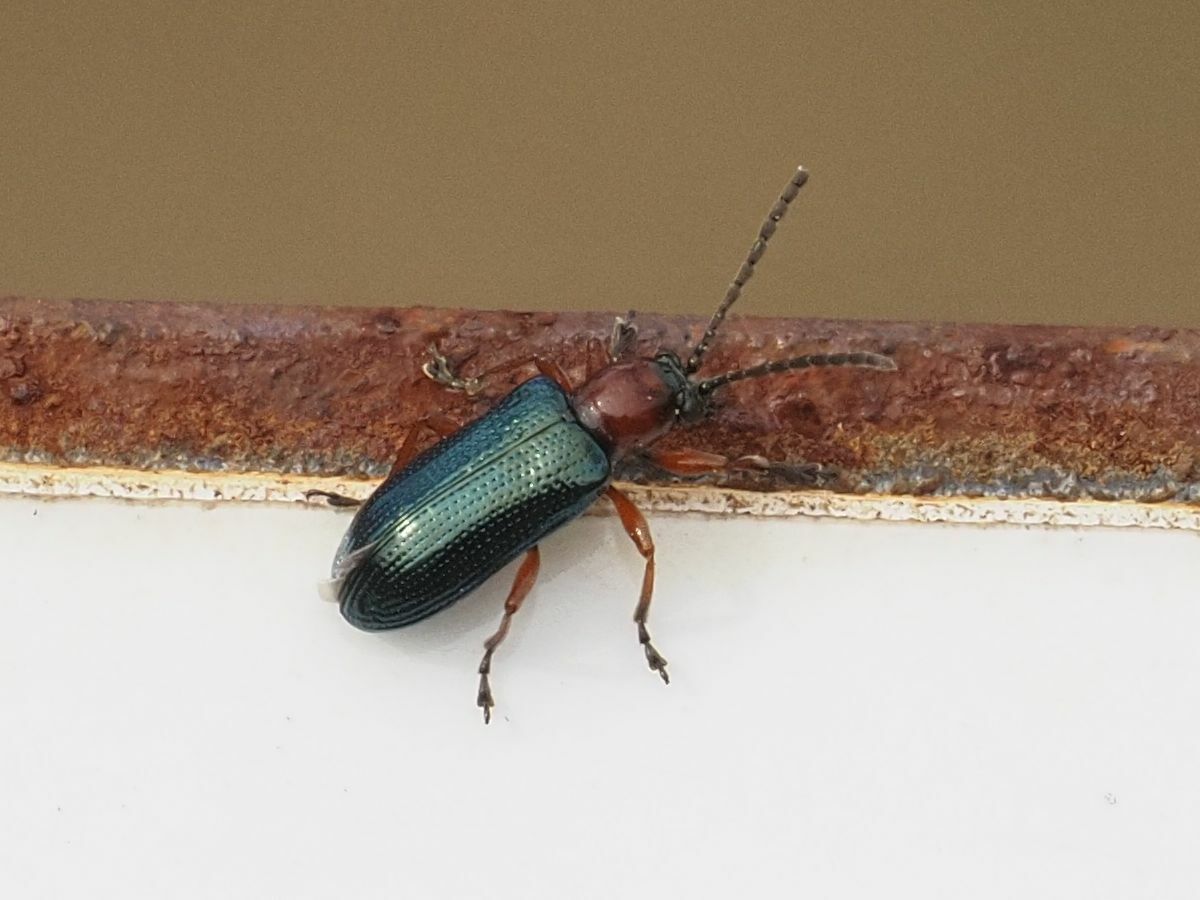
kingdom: Animalia
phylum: Arthropoda
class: Insecta
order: Coleoptera
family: Chrysomelidae
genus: Oulema
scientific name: Oulema
